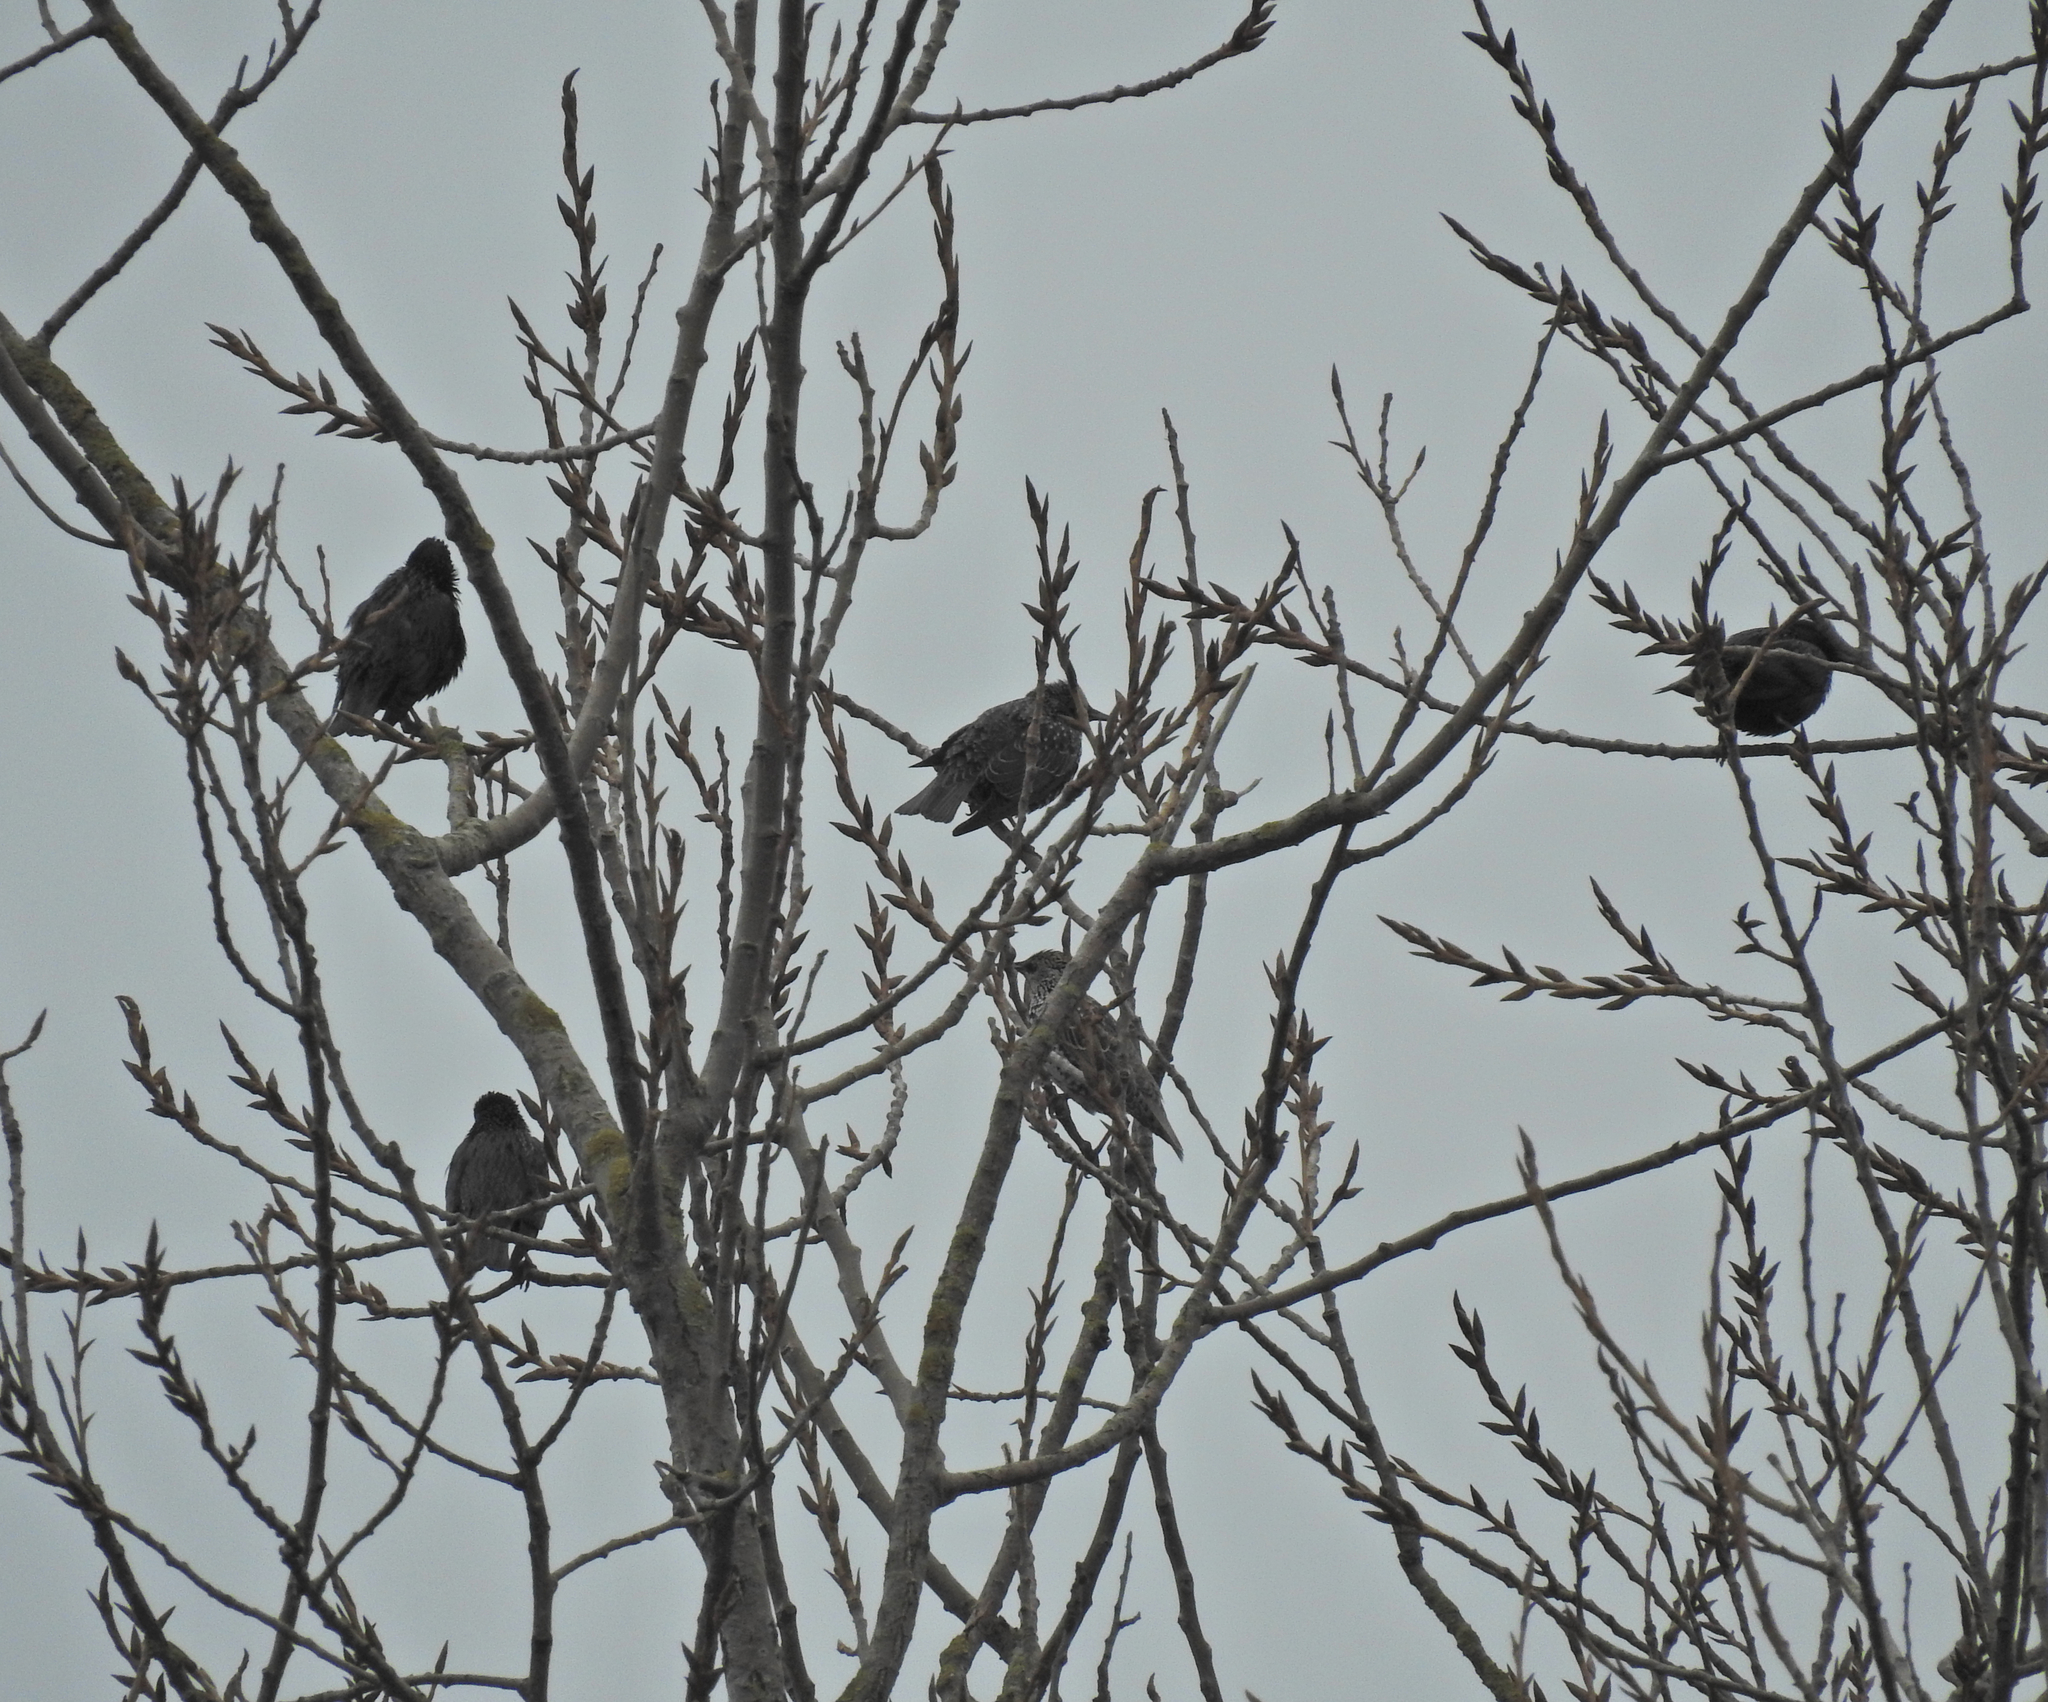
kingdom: Animalia
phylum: Chordata
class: Aves
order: Passeriformes
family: Sturnidae
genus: Sturnus
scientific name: Sturnus unicolor
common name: Spotless starling
